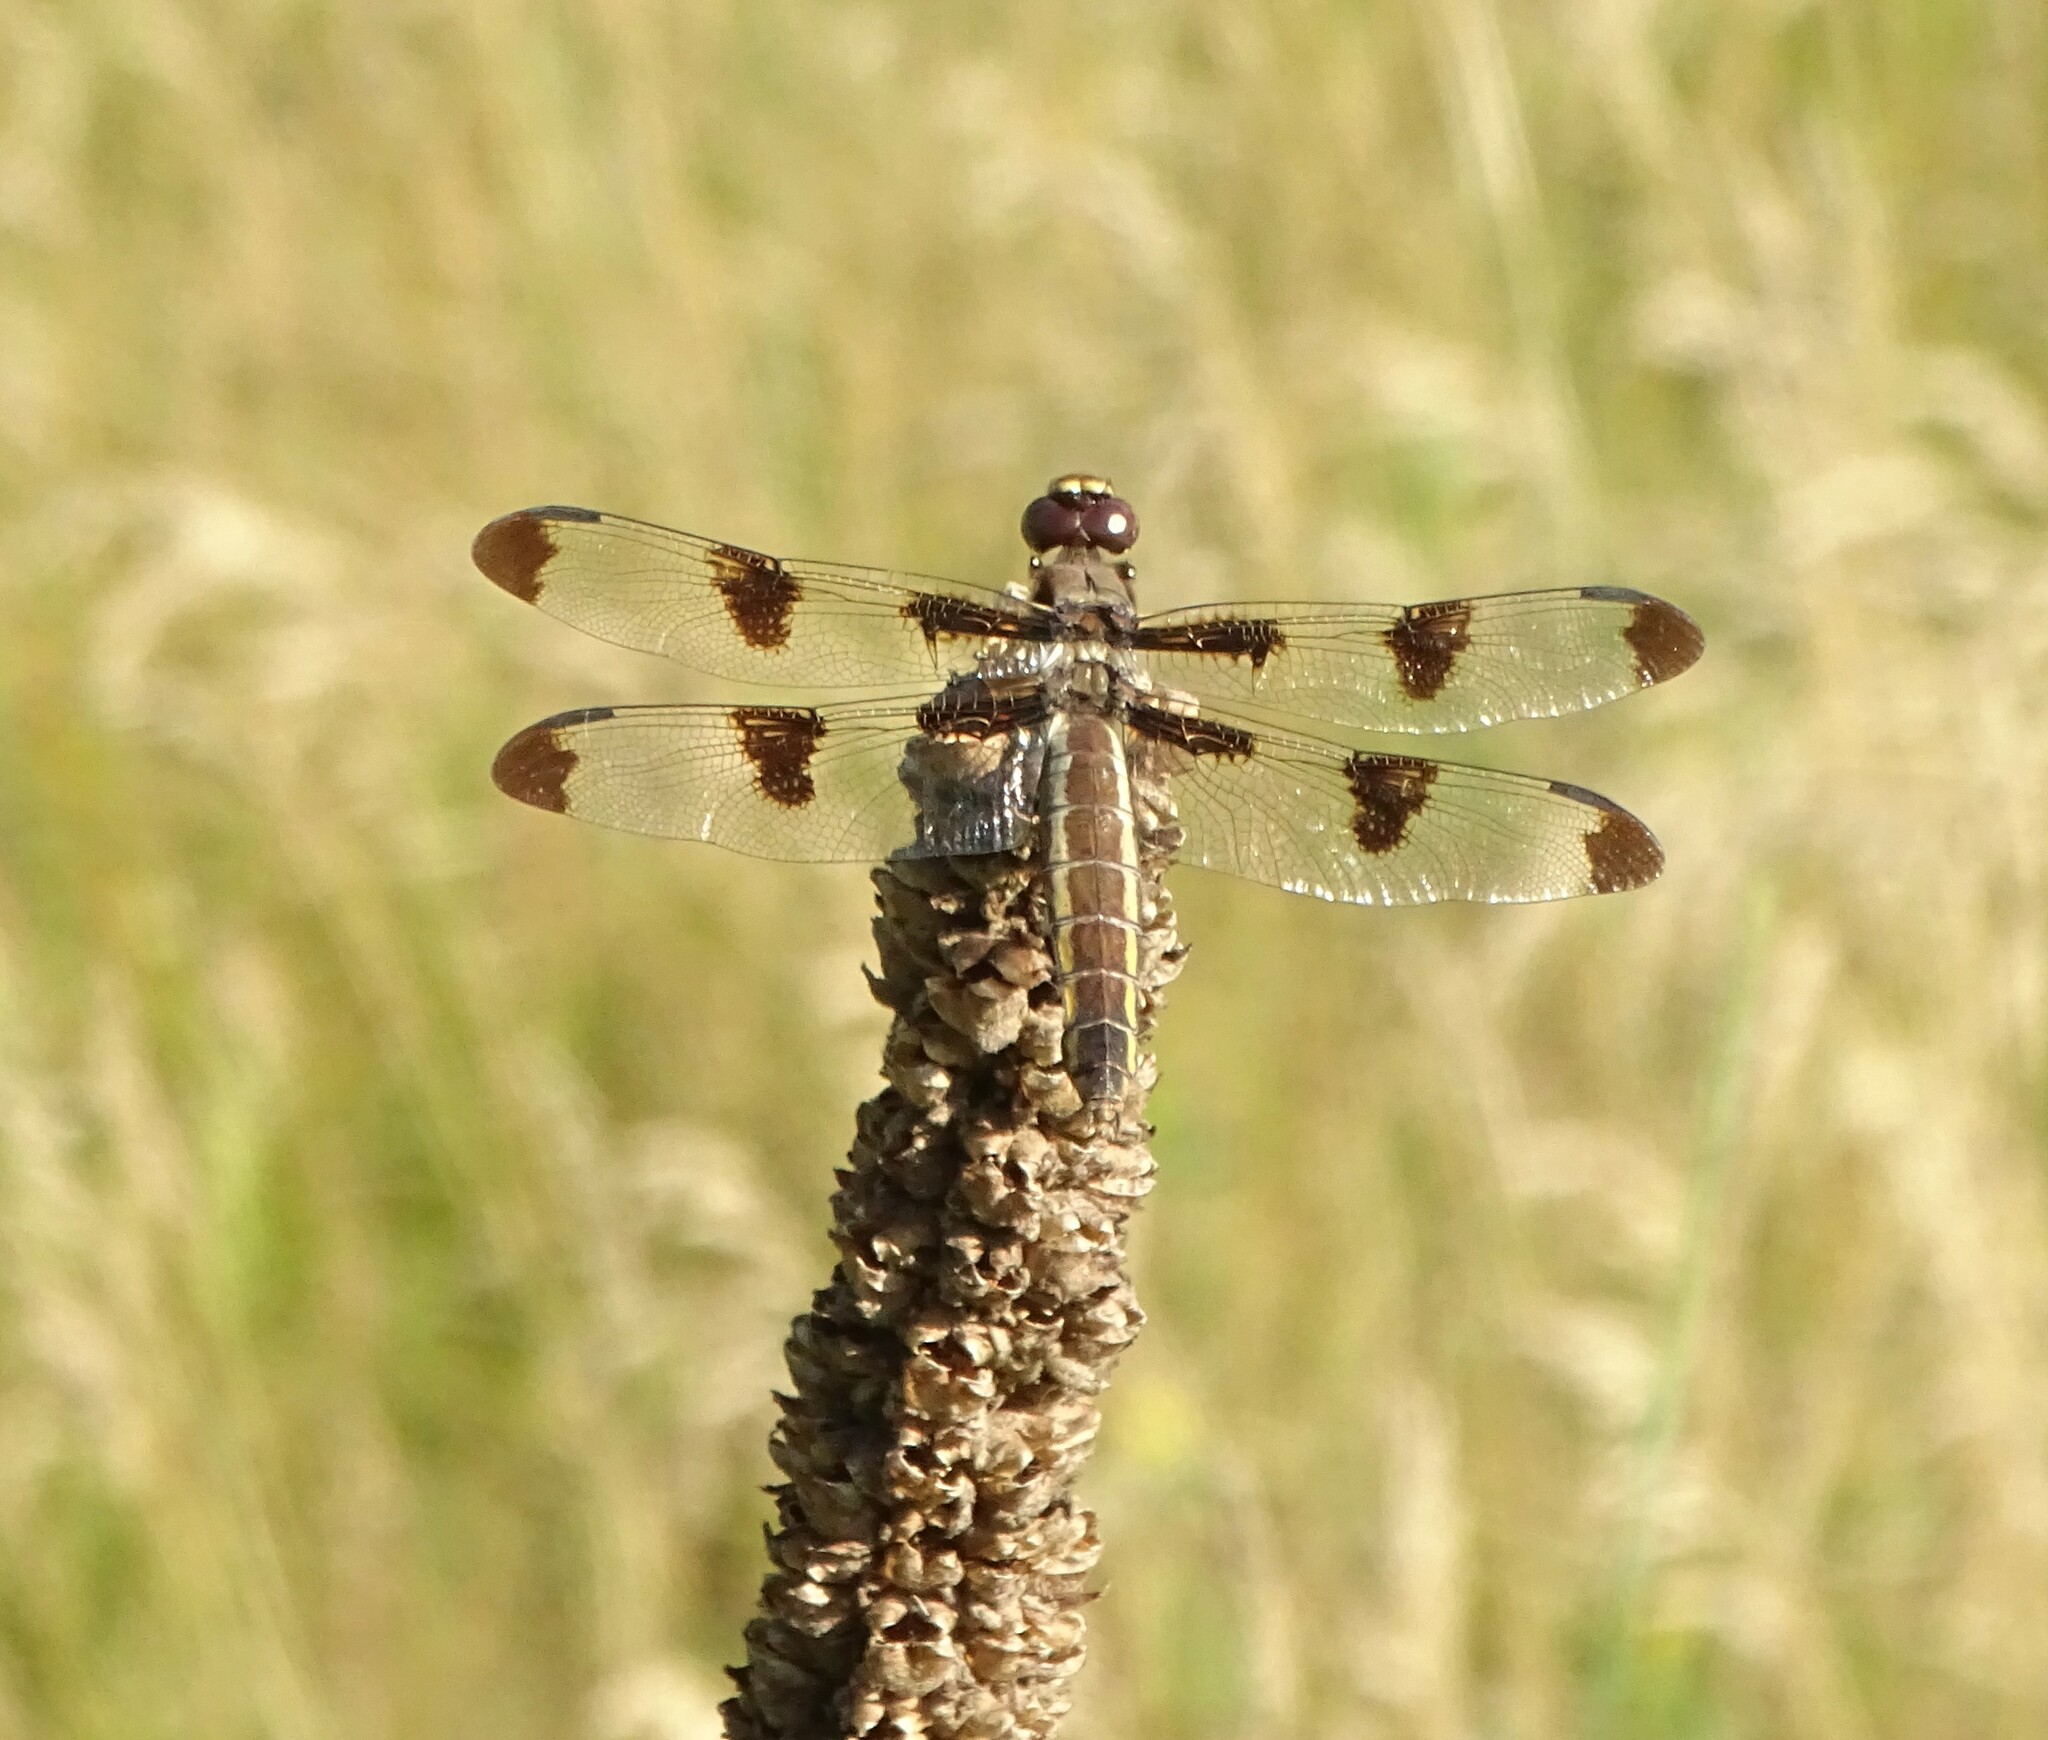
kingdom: Animalia
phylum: Arthropoda
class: Insecta
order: Odonata
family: Libellulidae
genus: Libellula
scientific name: Libellula pulchella
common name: Twelve-spotted skimmer
